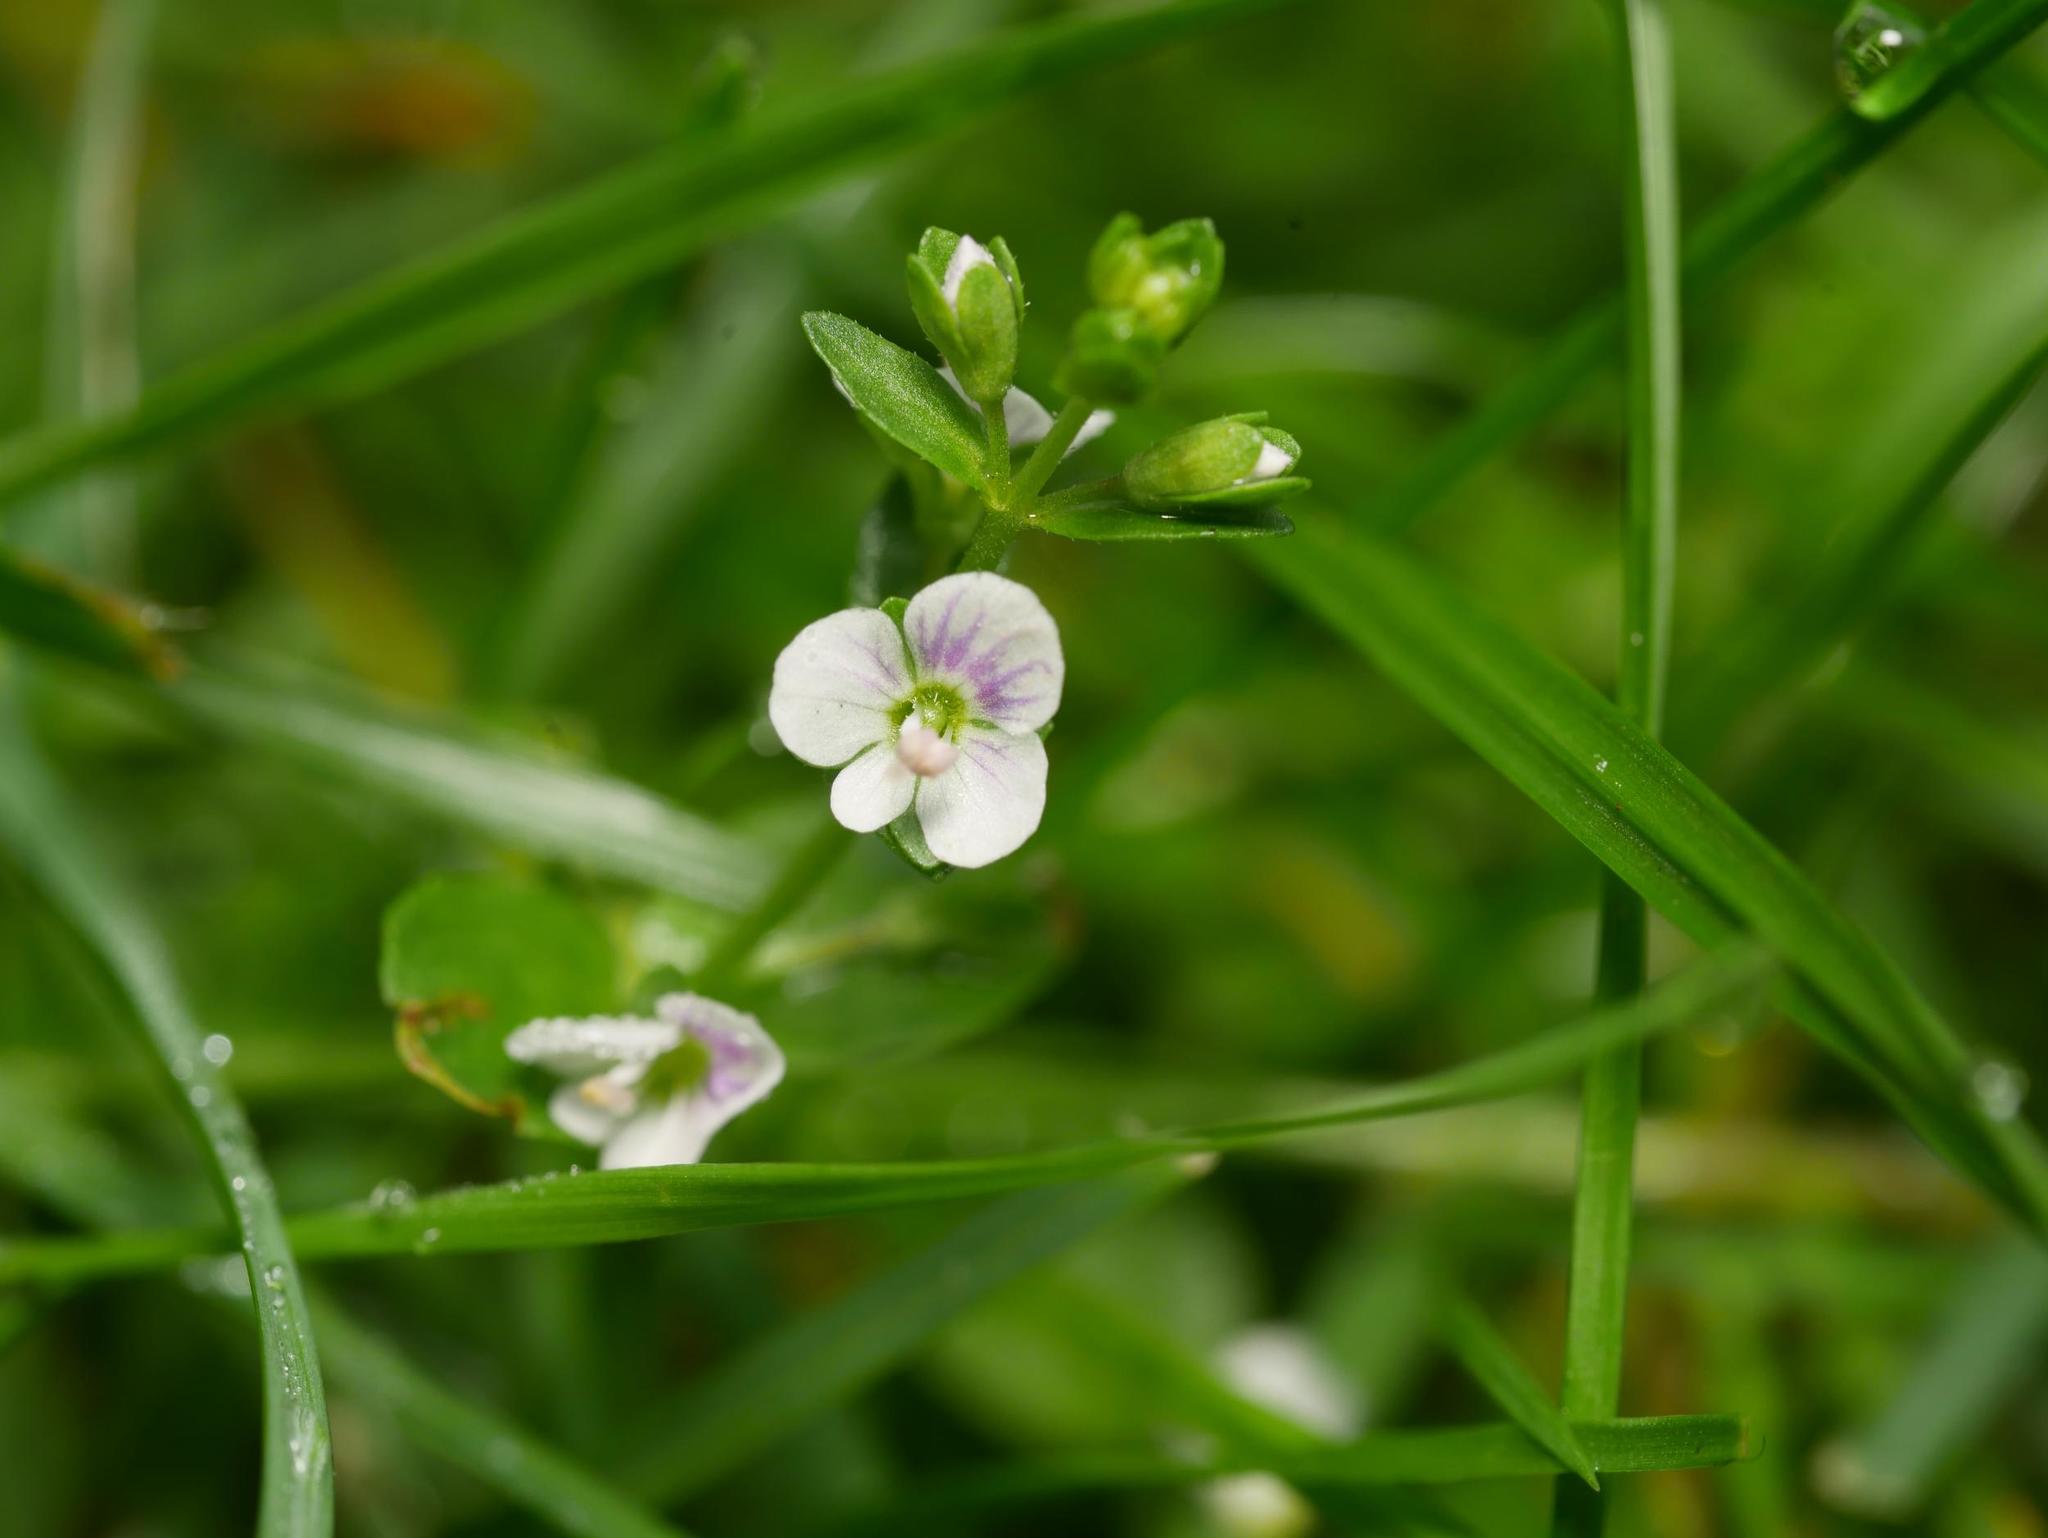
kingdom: Plantae
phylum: Tracheophyta
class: Magnoliopsida
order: Lamiales
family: Plantaginaceae
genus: Veronica
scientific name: Veronica serpyllifolia
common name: Thyme-leaved speedwell
